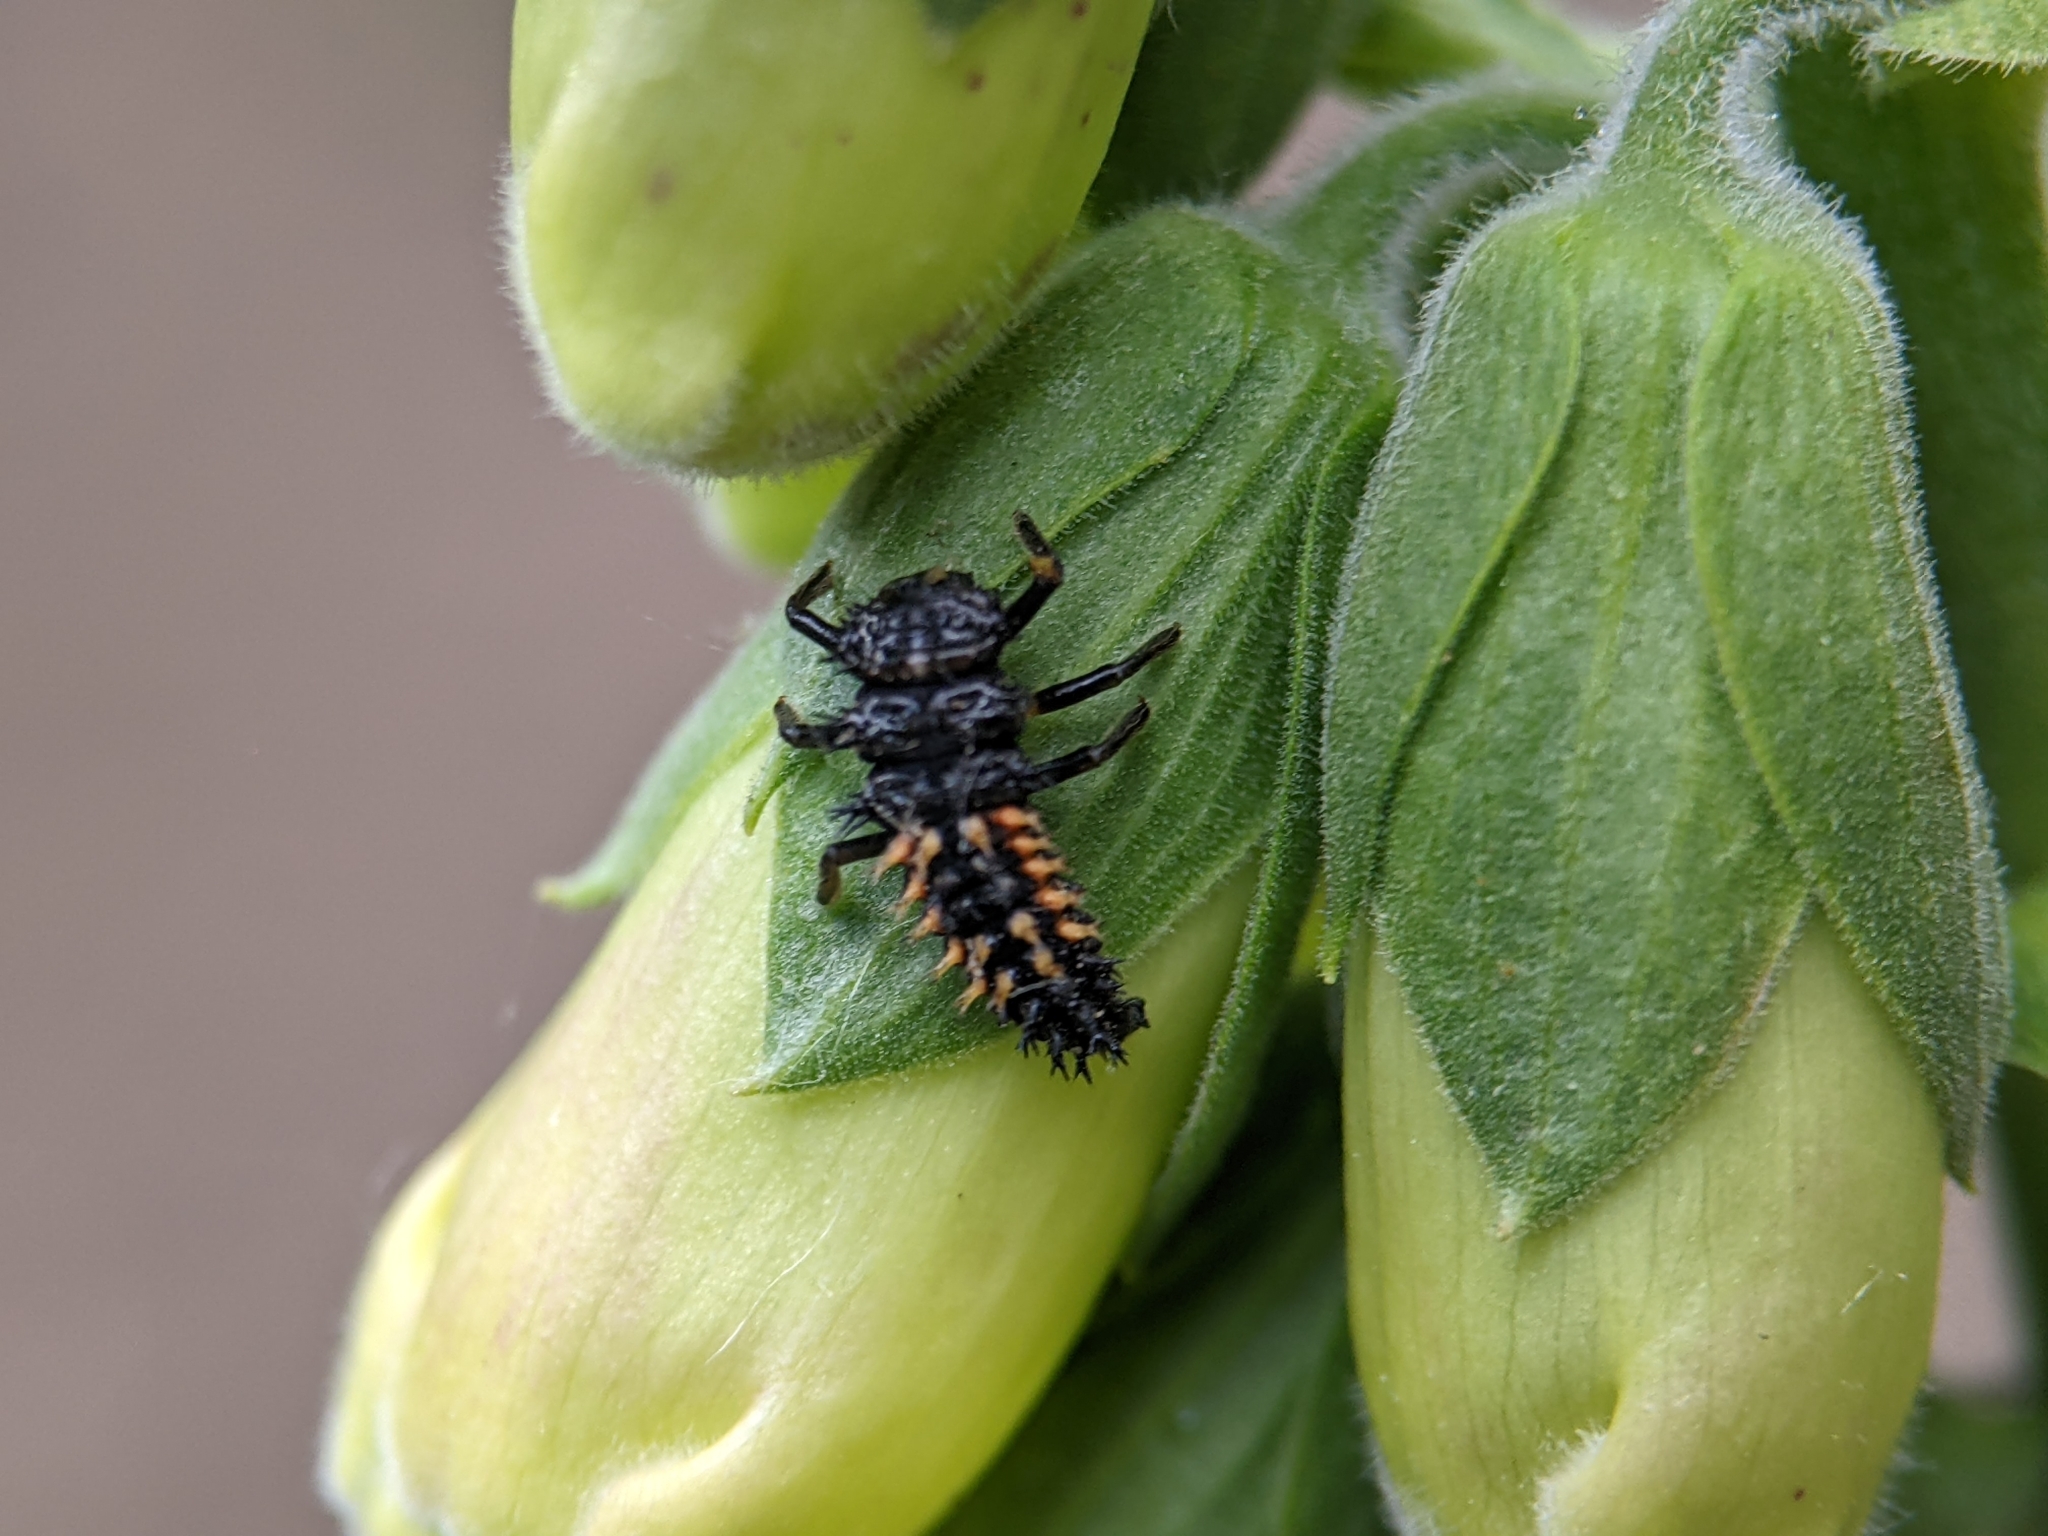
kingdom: Animalia
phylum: Arthropoda
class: Insecta
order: Coleoptera
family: Coccinellidae
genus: Harmonia
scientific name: Harmonia axyridis
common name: Harlequin ladybird
